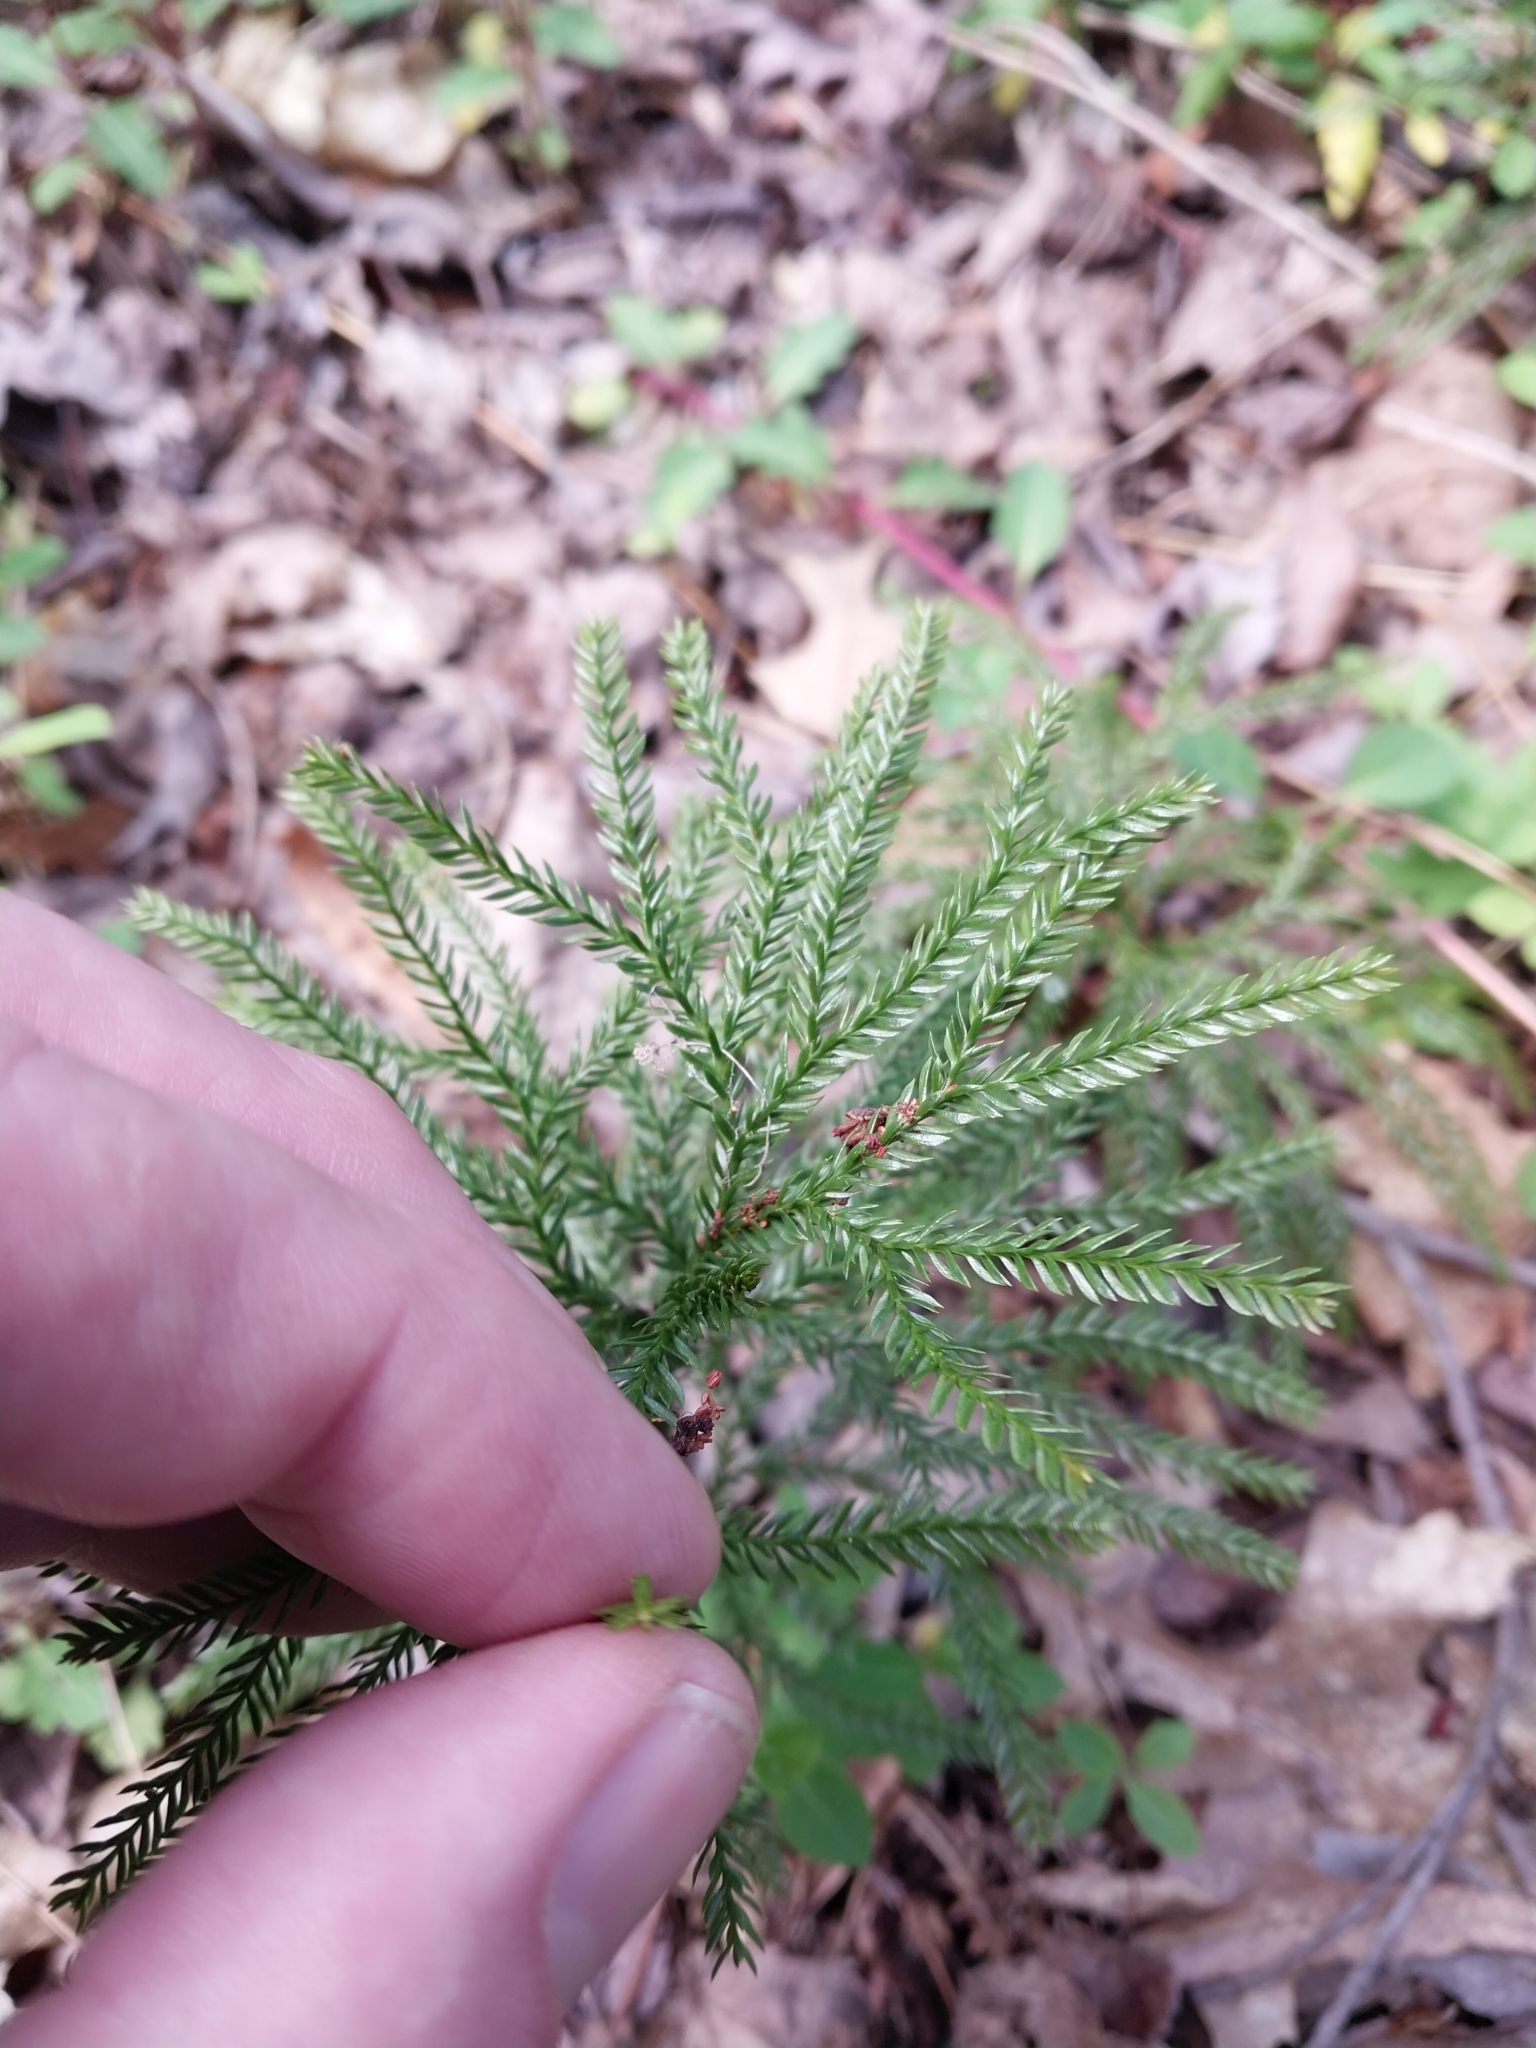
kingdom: Plantae
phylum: Tracheophyta
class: Lycopodiopsida
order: Lycopodiales
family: Lycopodiaceae
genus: Dendrolycopodium
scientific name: Dendrolycopodium obscurum
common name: Common ground-pine
